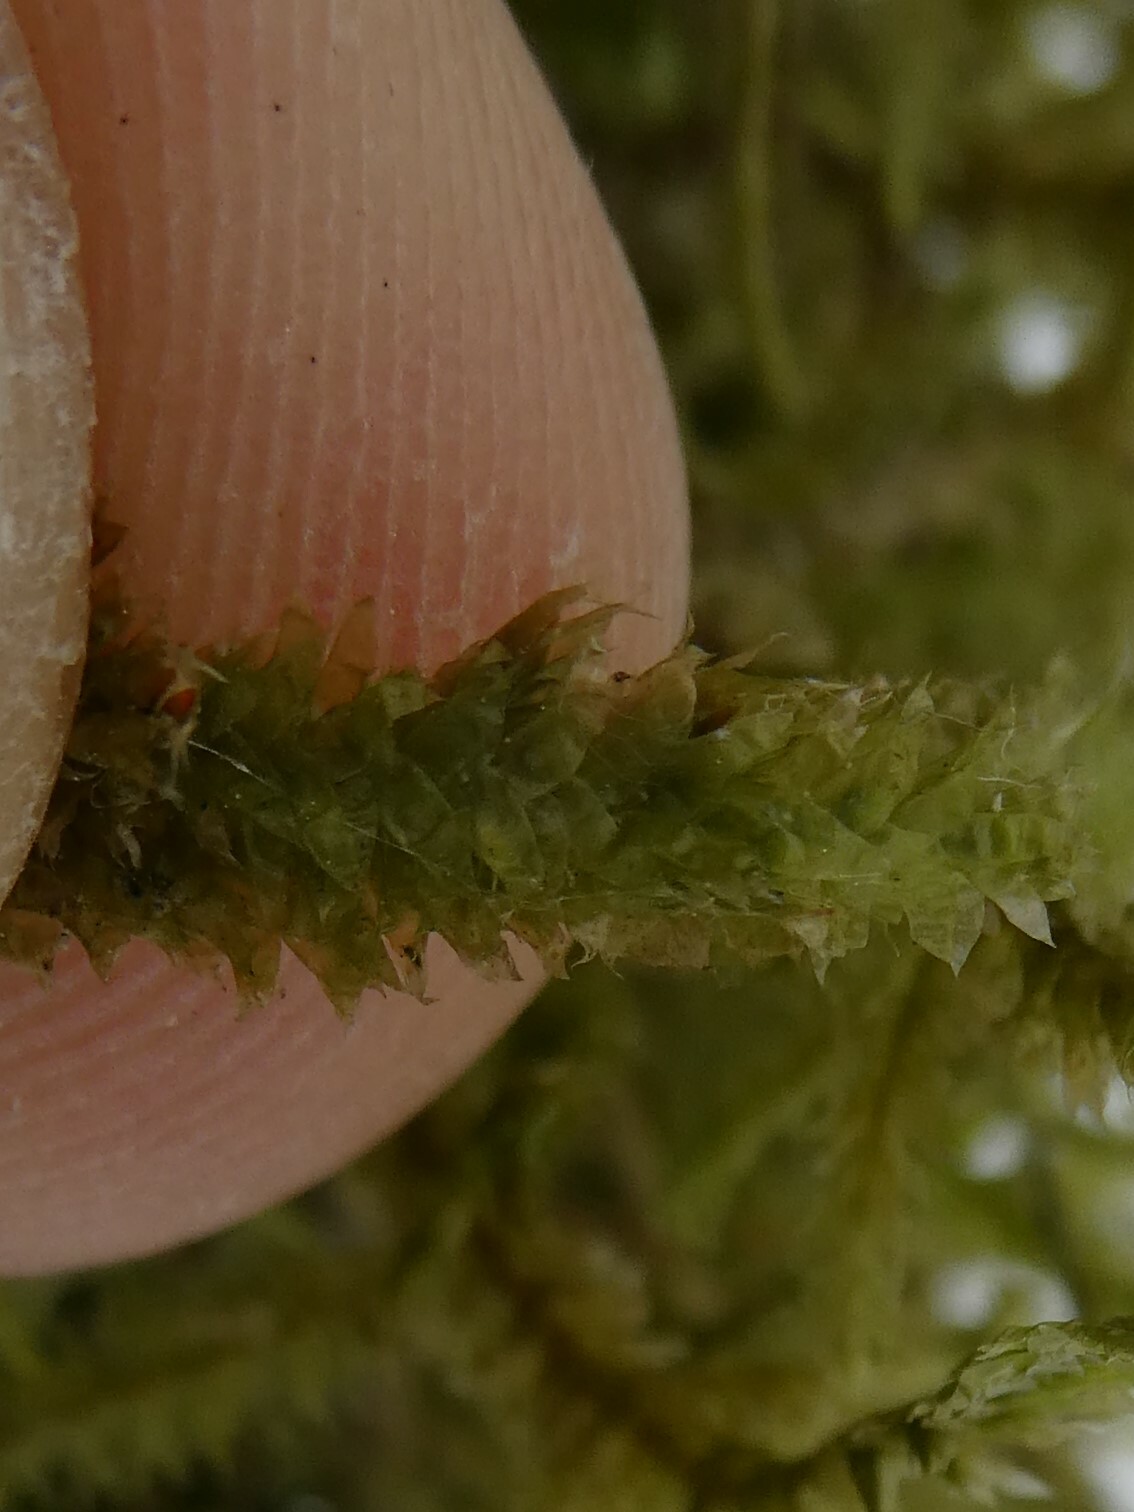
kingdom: Plantae
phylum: Bryophyta
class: Bryopsida
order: Hypnales
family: Neckeraceae
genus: Neckera
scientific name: Neckera pennata
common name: Feathery neckera
